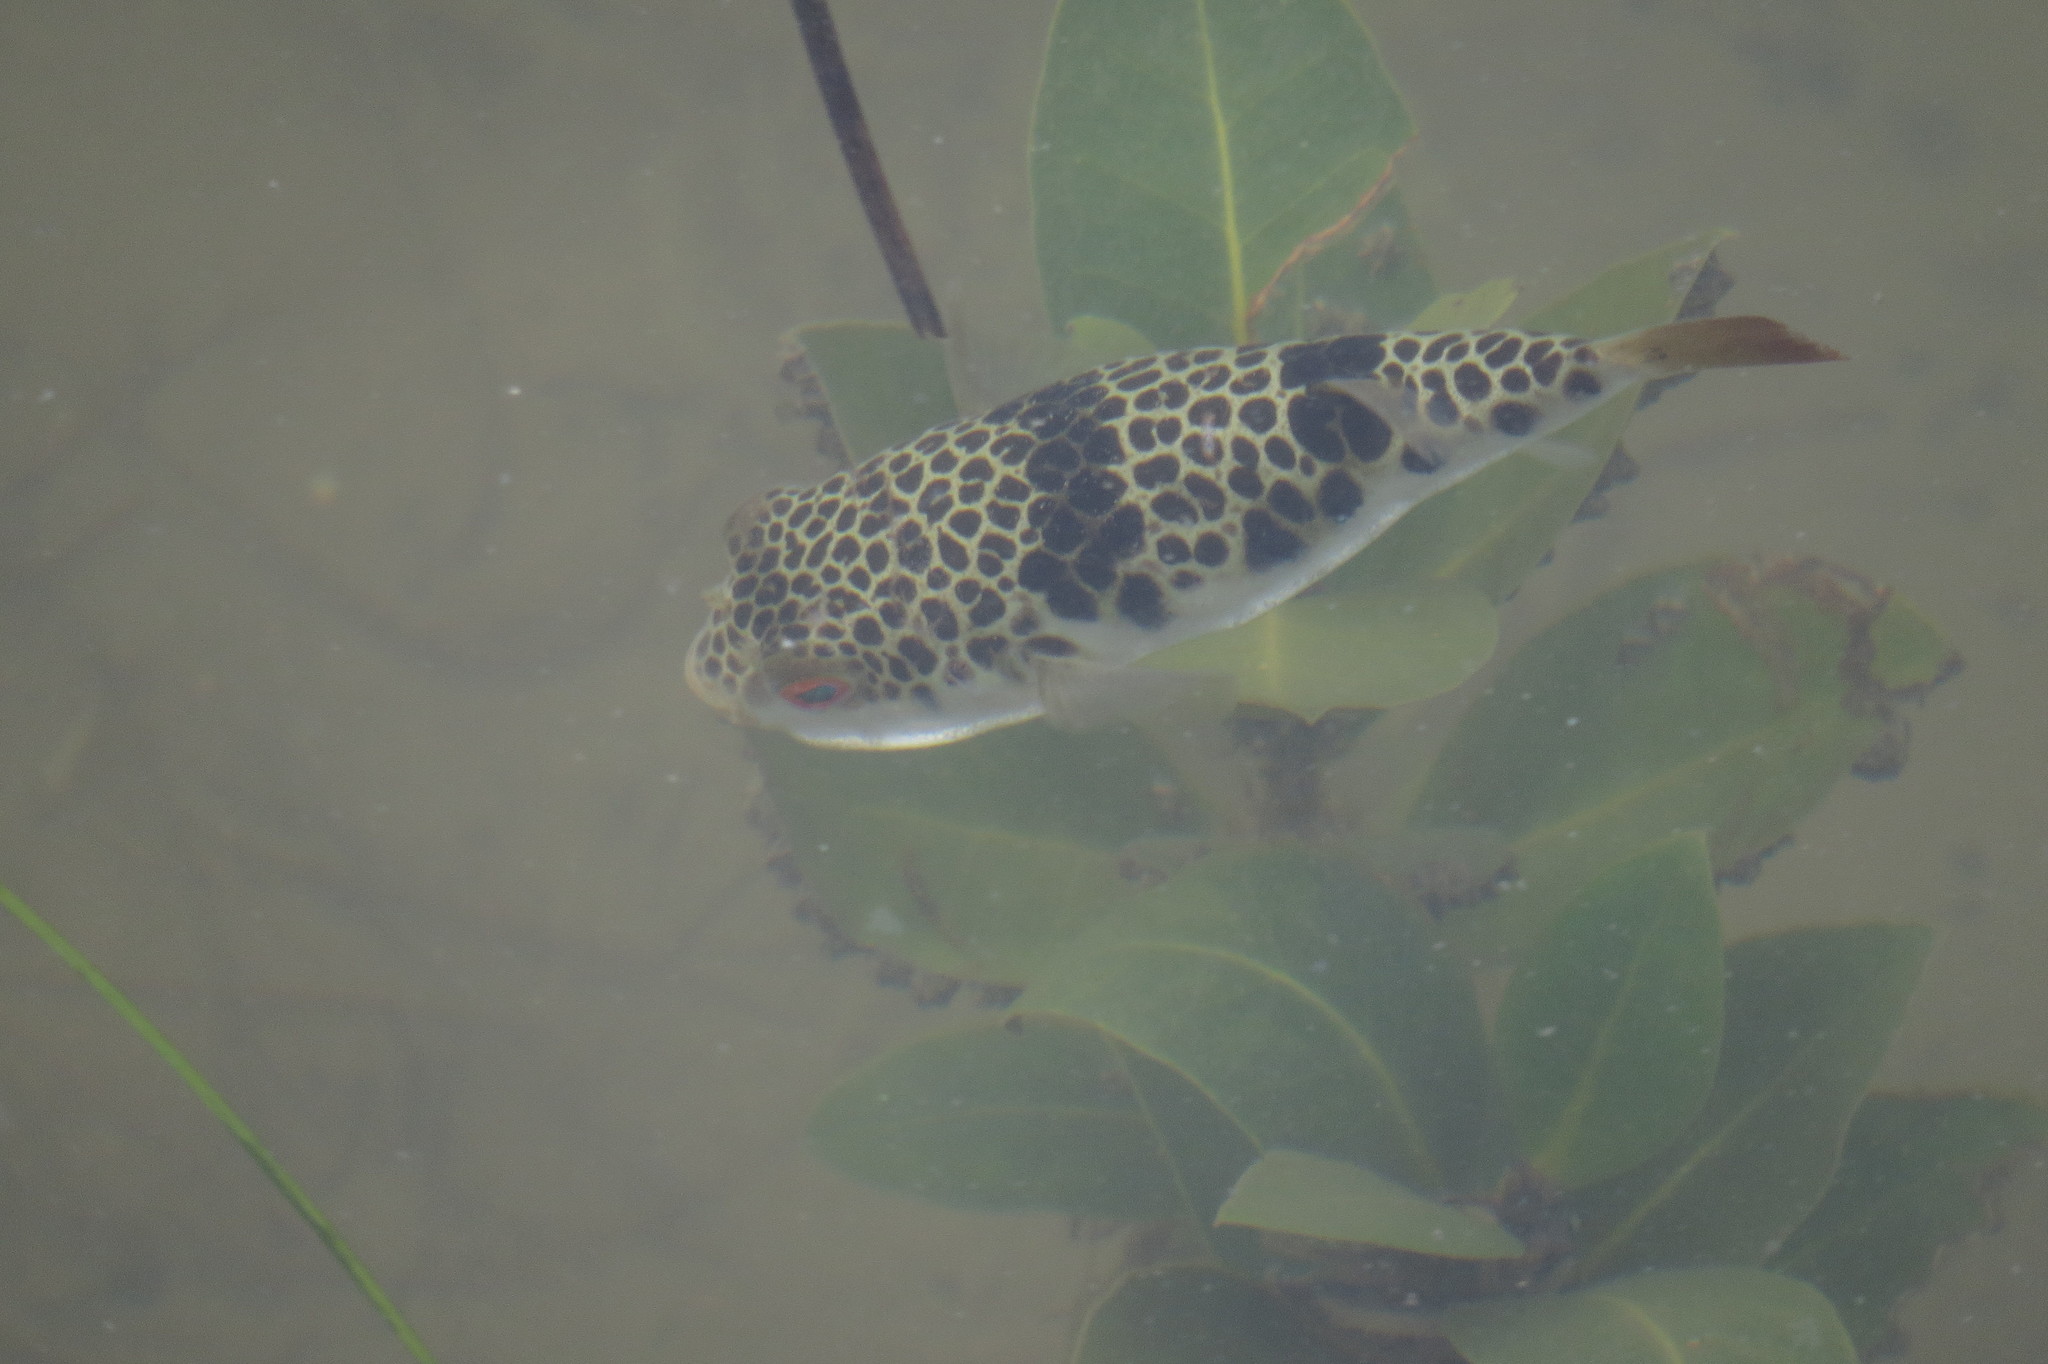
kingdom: Animalia
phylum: Chordata
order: Tetraodontiformes
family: Tetraodontidae
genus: Tetractenos
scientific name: Tetractenos glaber
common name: Smooth toadfish
